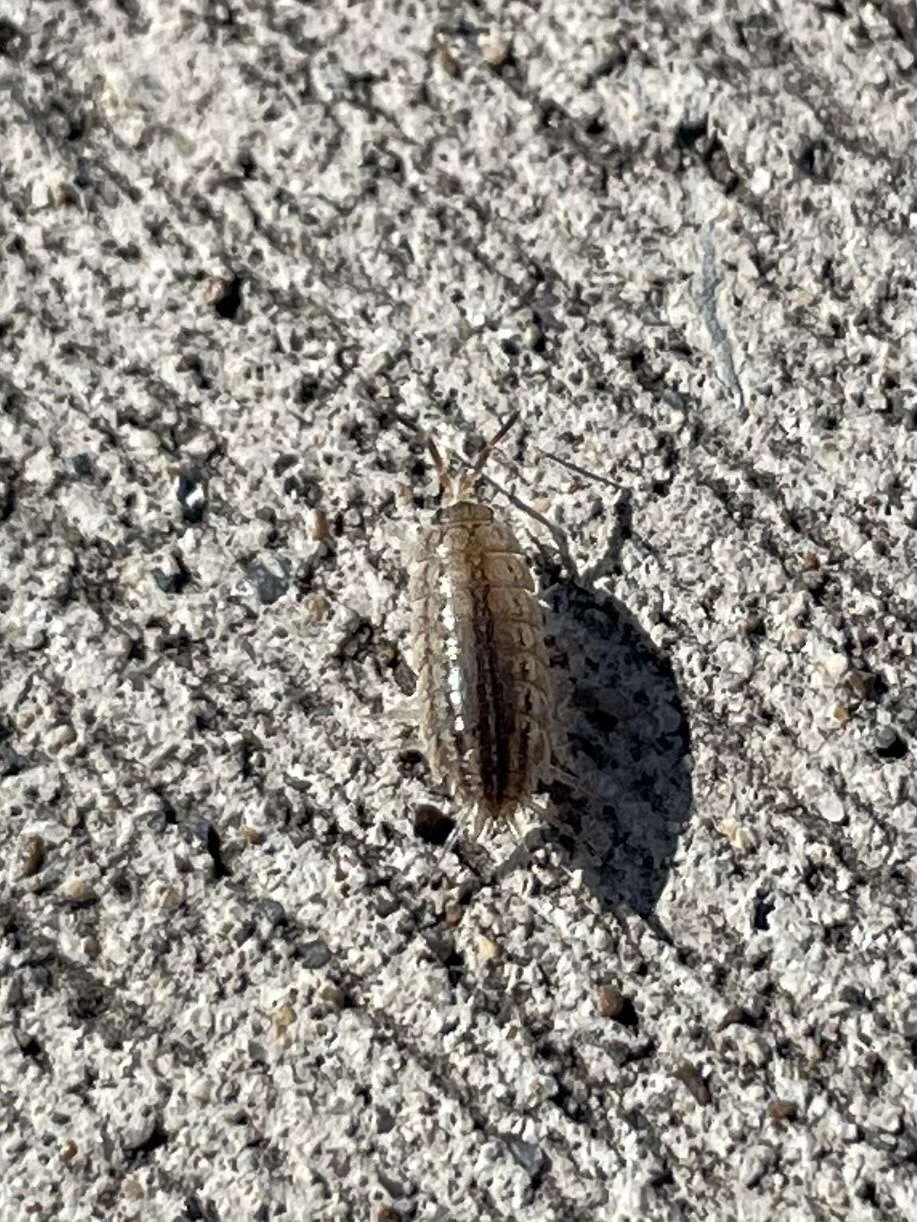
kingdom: Animalia
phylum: Arthropoda
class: Malacostraca
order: Isopoda
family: Porcellionidae
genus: Porcellionides
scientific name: Porcellionides virgatus
